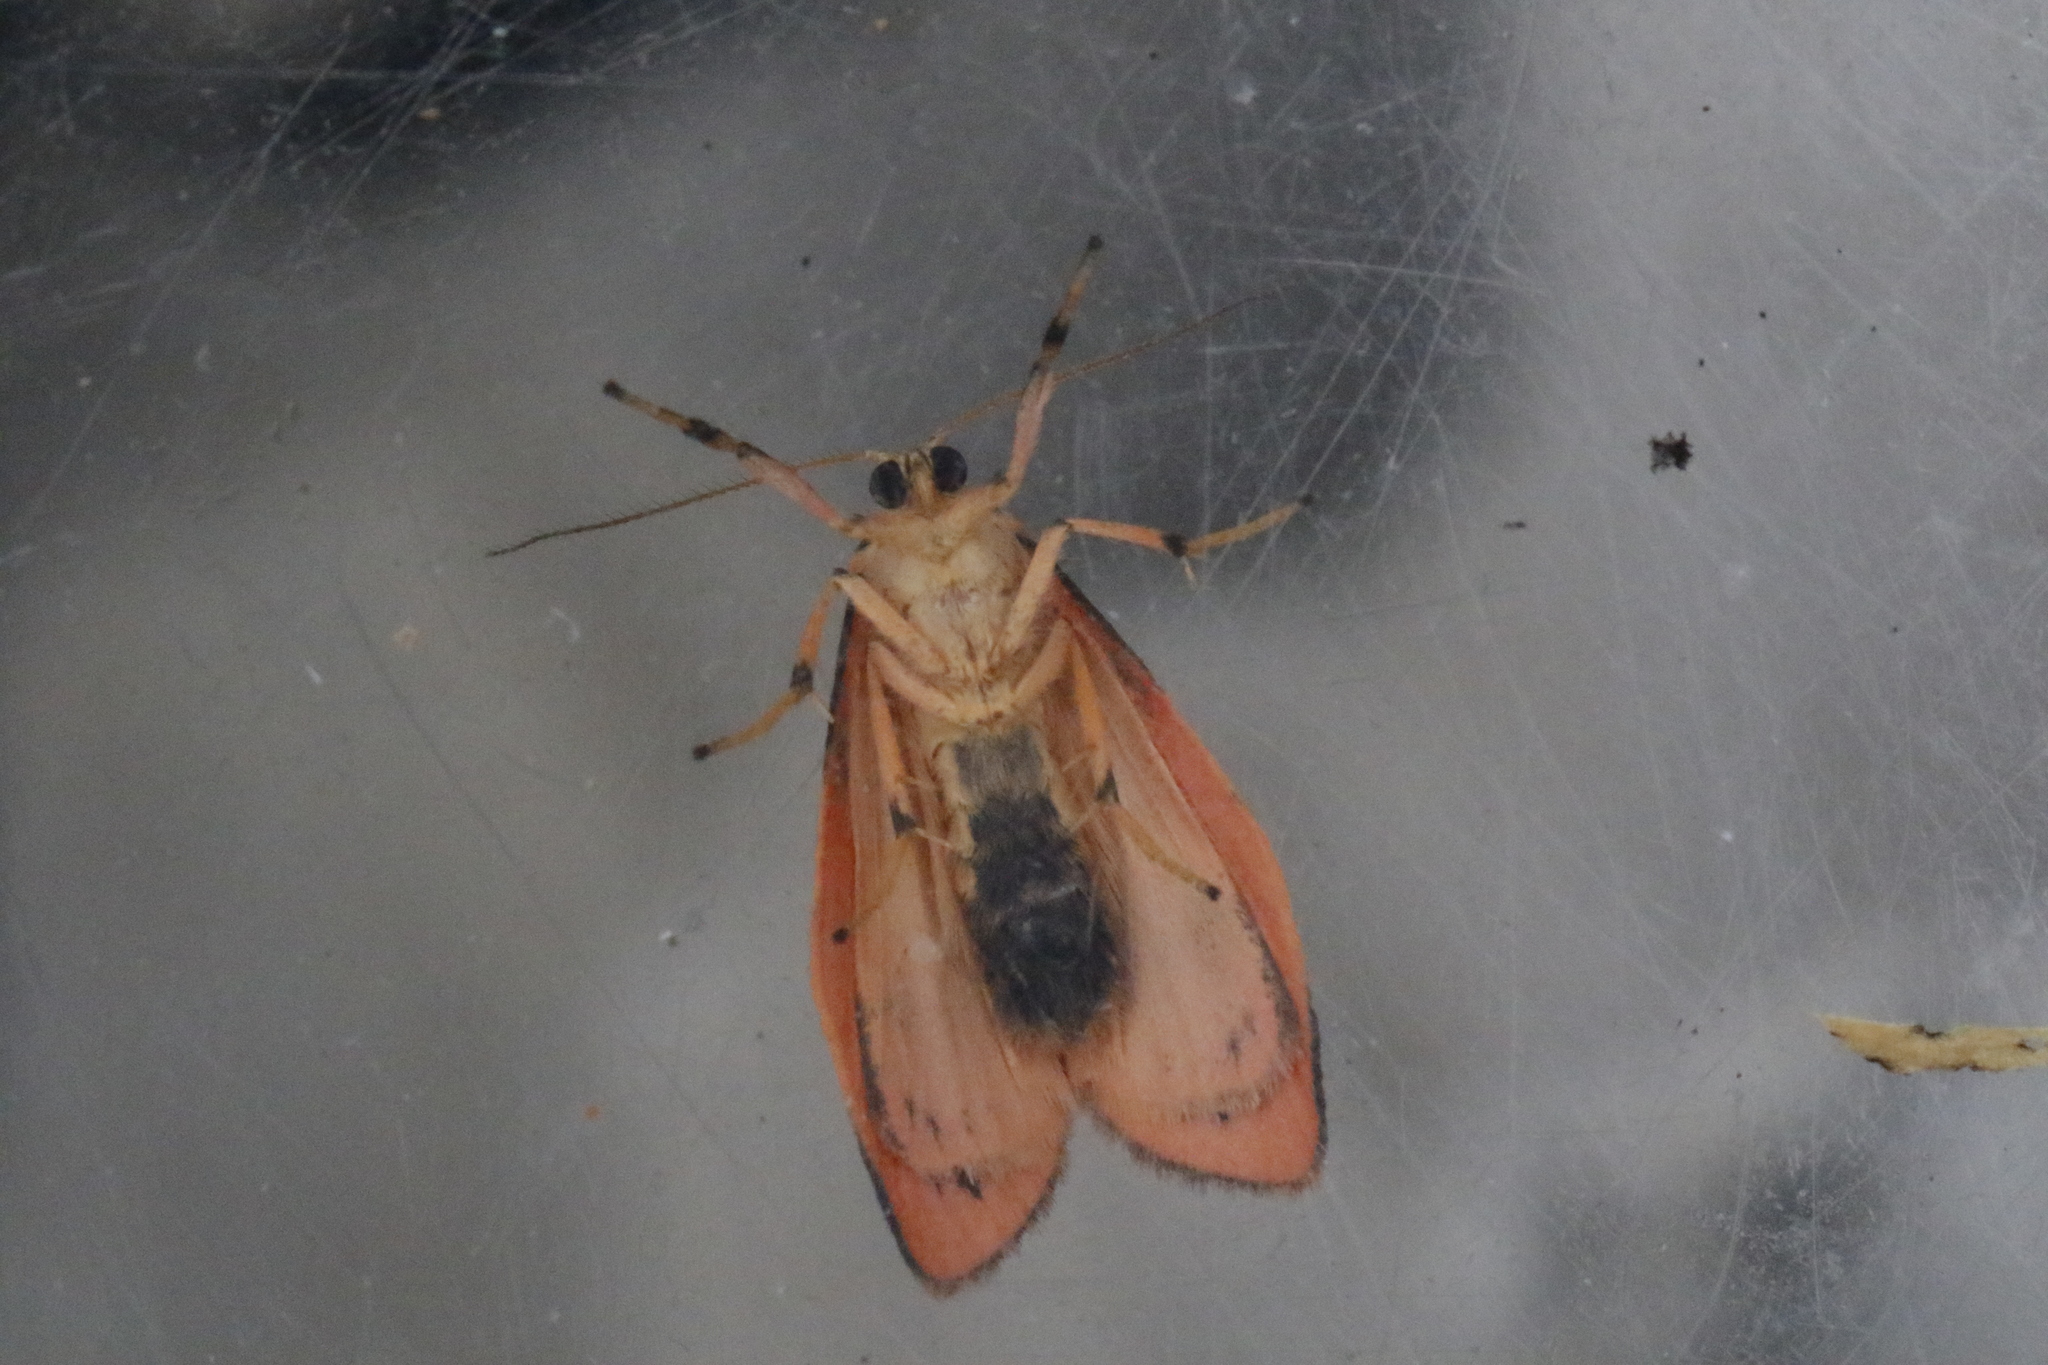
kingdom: Animalia
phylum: Arthropoda
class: Insecta
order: Lepidoptera
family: Erebidae
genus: Miltochrista
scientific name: Miltochrista miniata
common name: Rosy footman
